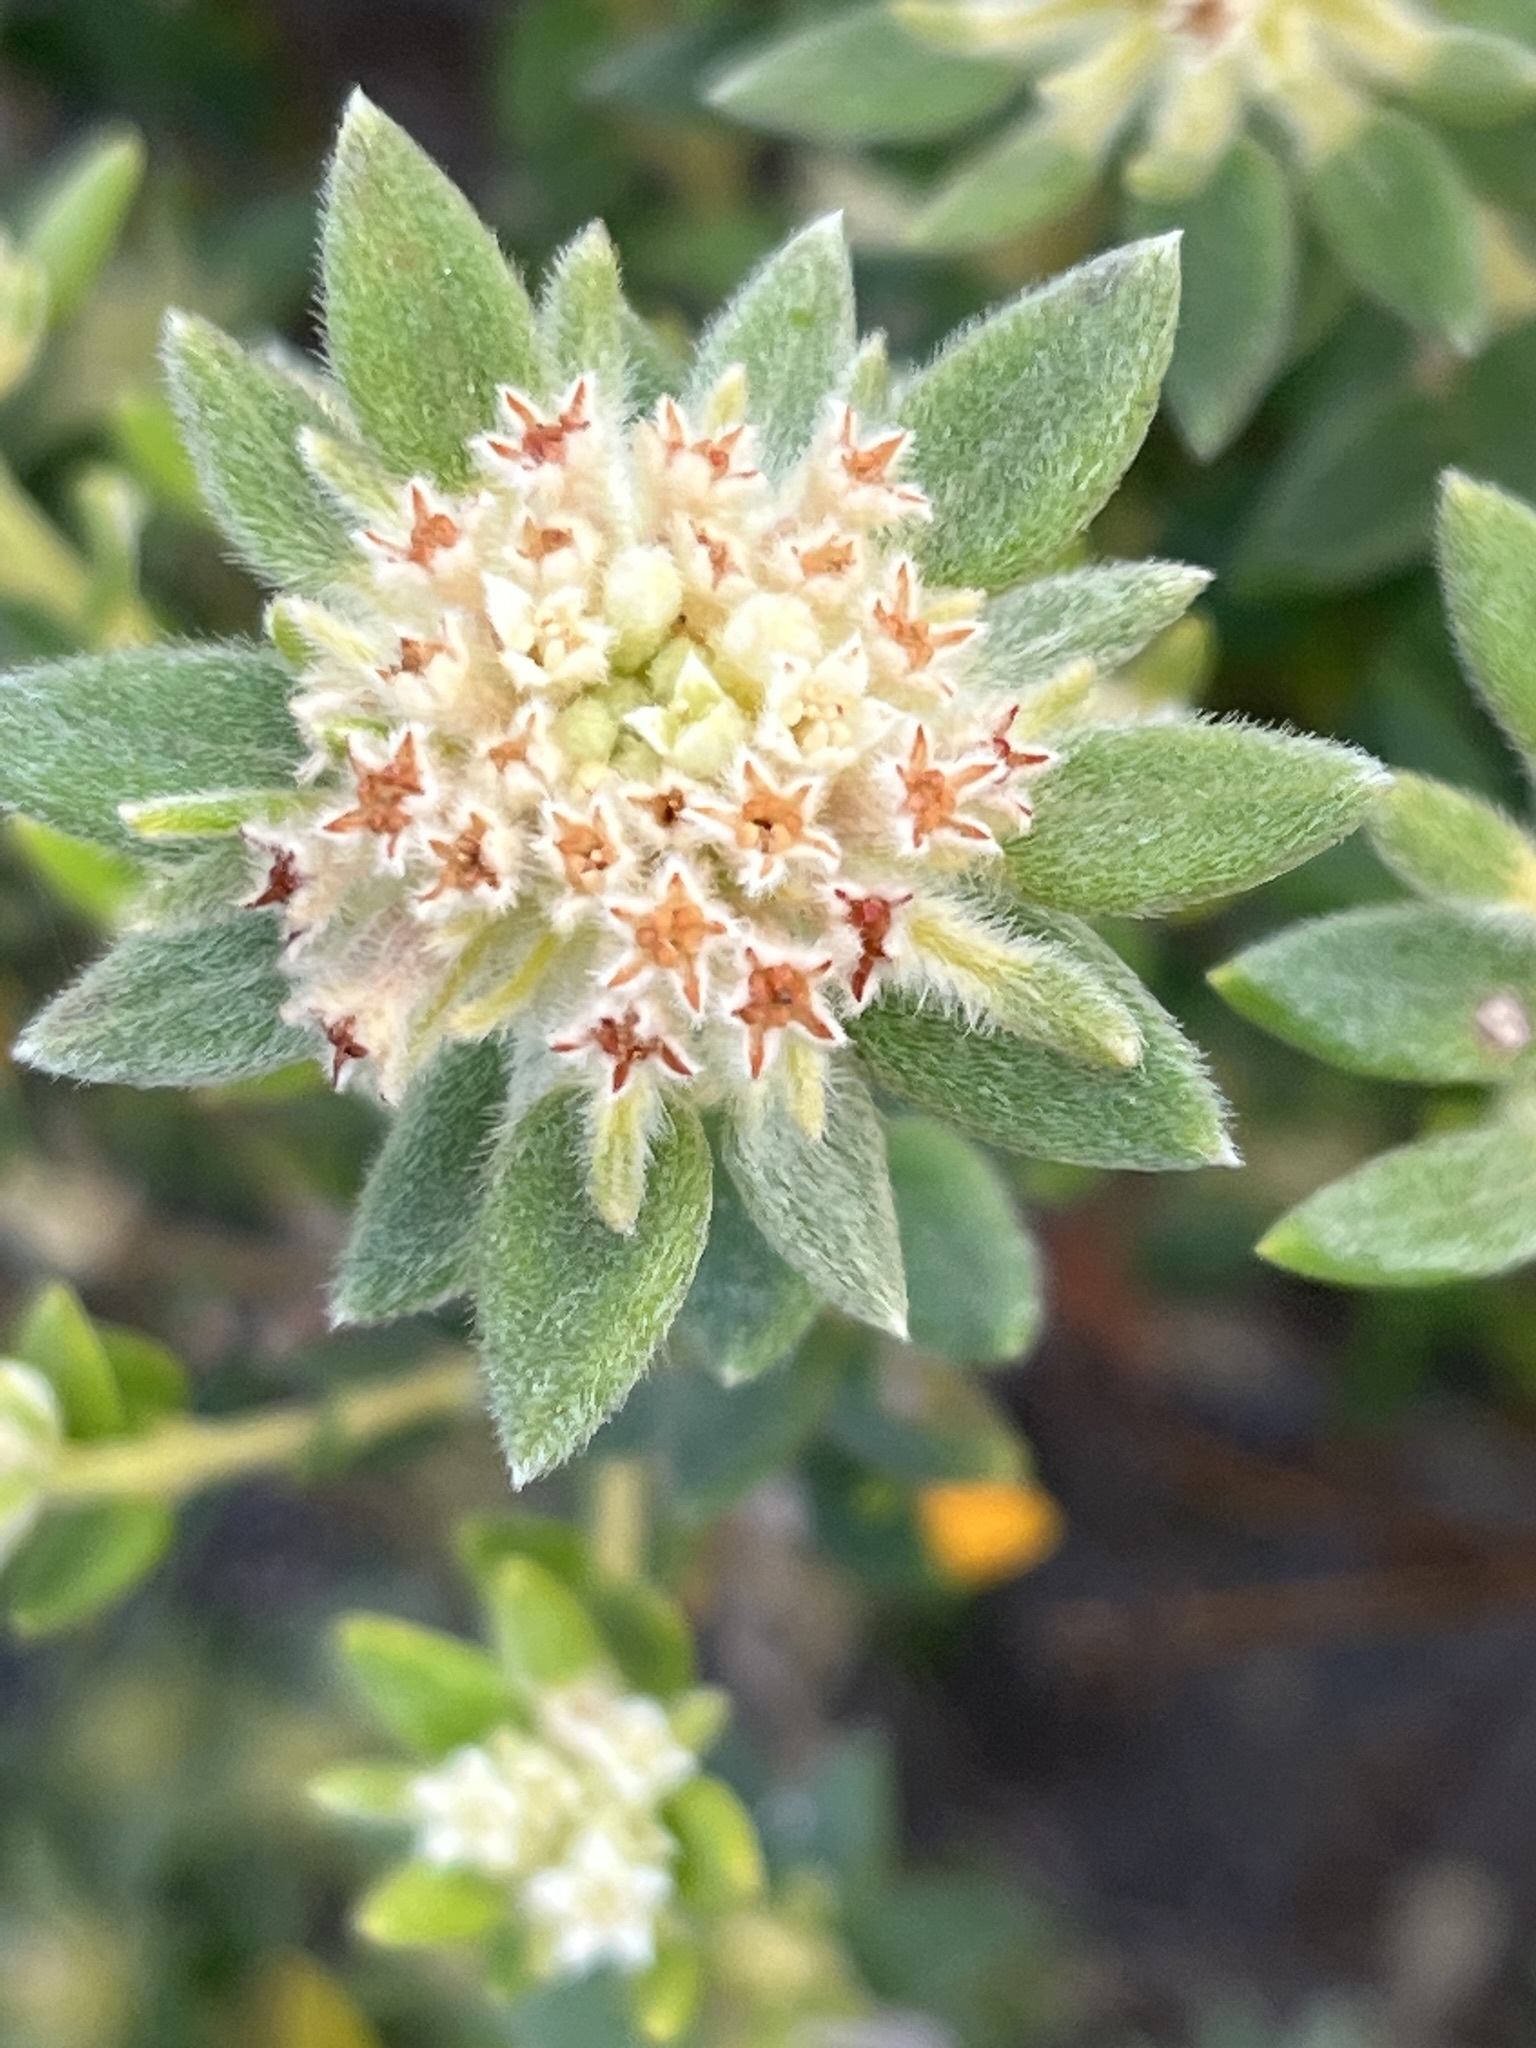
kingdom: Plantae
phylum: Tracheophyta
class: Magnoliopsida
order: Rosales
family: Rhamnaceae
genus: Phylica
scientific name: Phylica dioica
